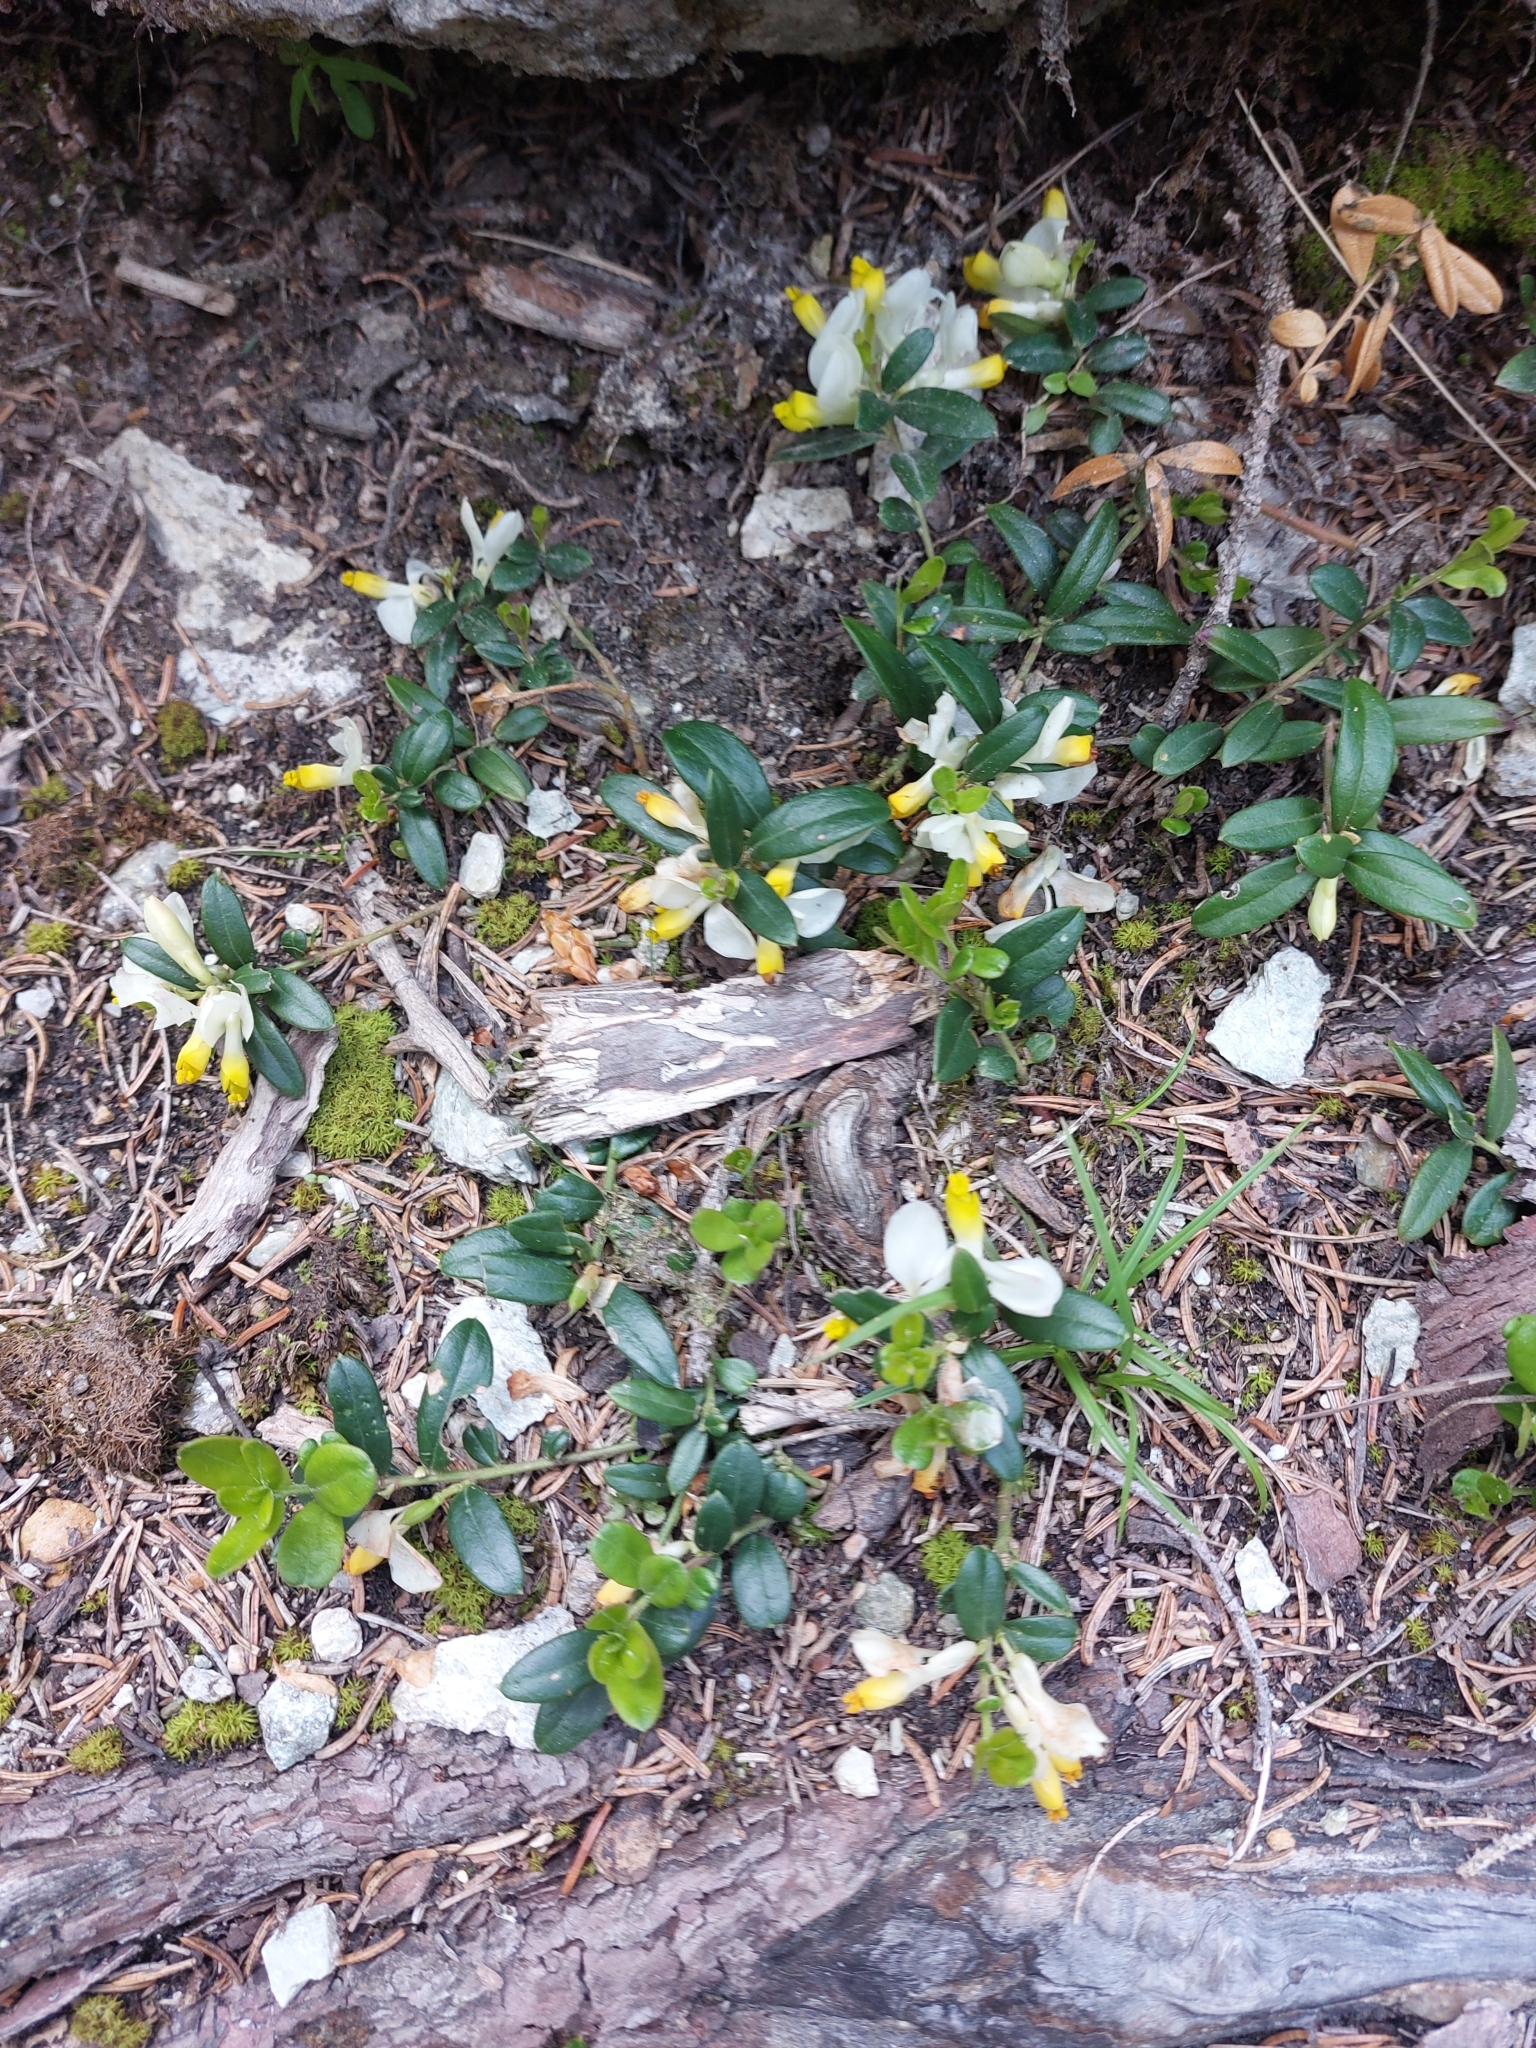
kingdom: Plantae
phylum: Tracheophyta
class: Magnoliopsida
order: Fabales
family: Polygalaceae
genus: Polygaloides
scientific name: Polygaloides chamaebuxus
